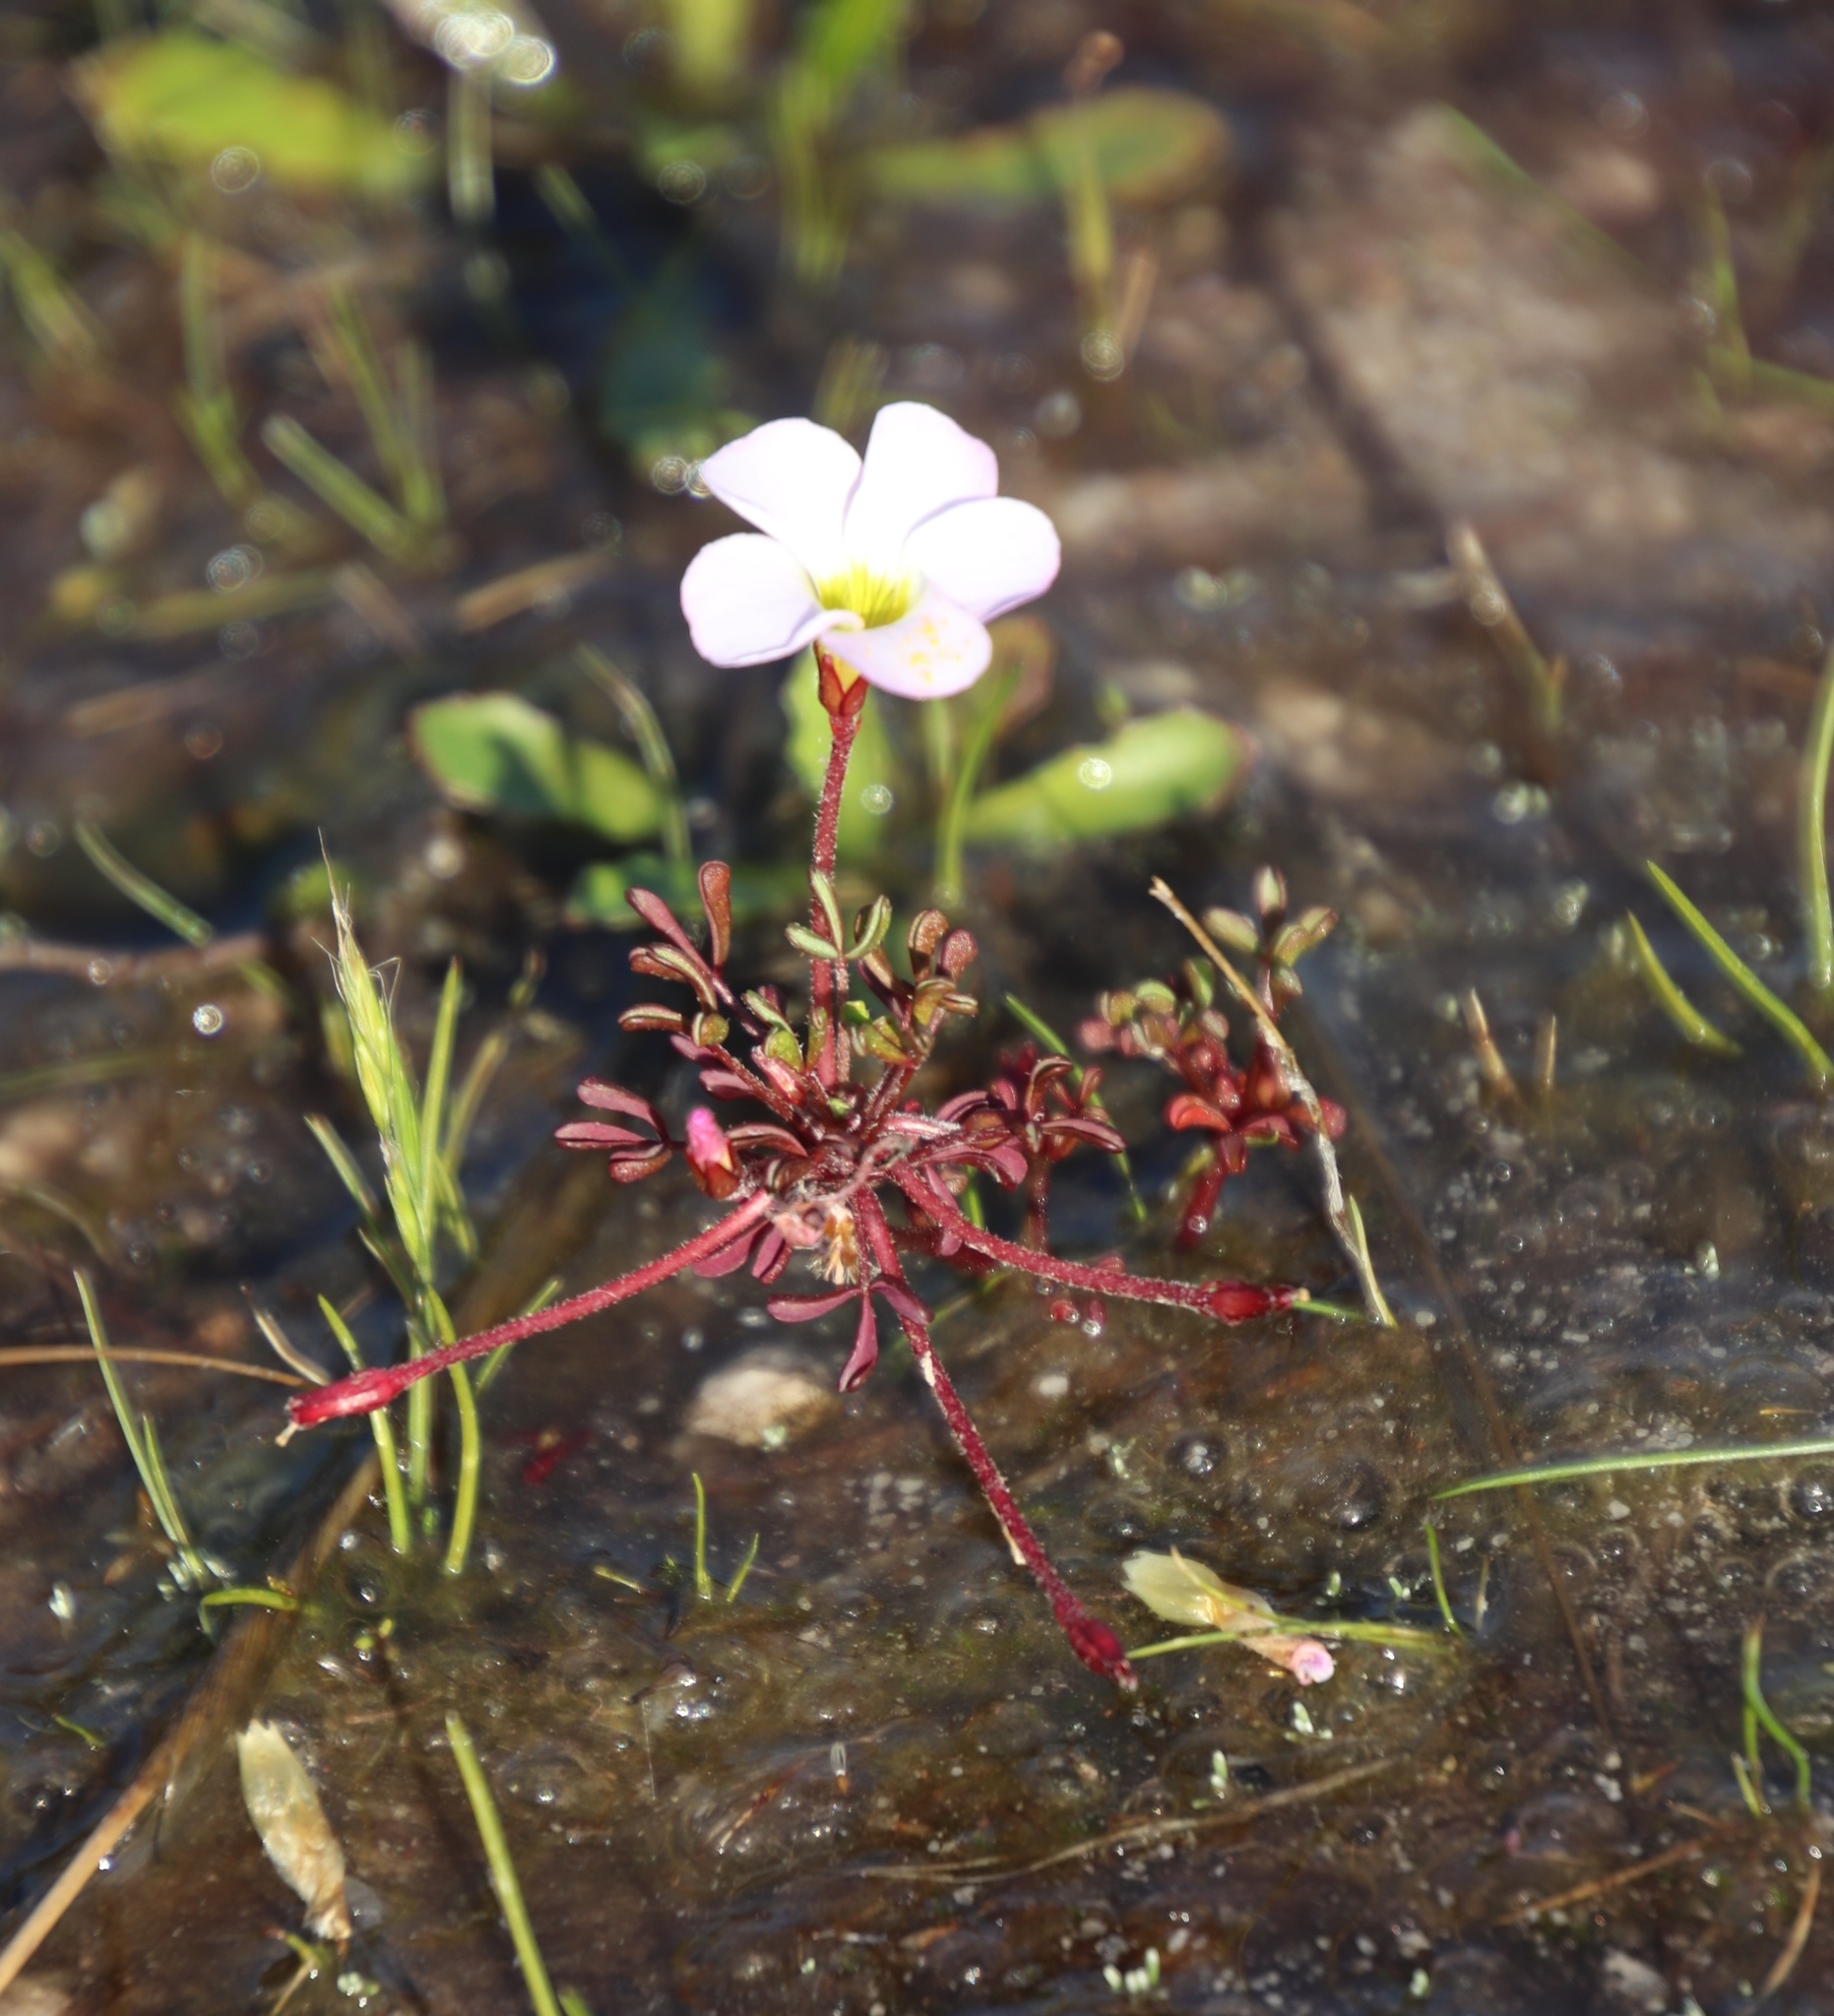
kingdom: Plantae
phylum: Tracheophyta
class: Magnoliopsida
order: Oxalidales
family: Oxalidaceae
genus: Oxalis
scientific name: Oxalis recticaulis
